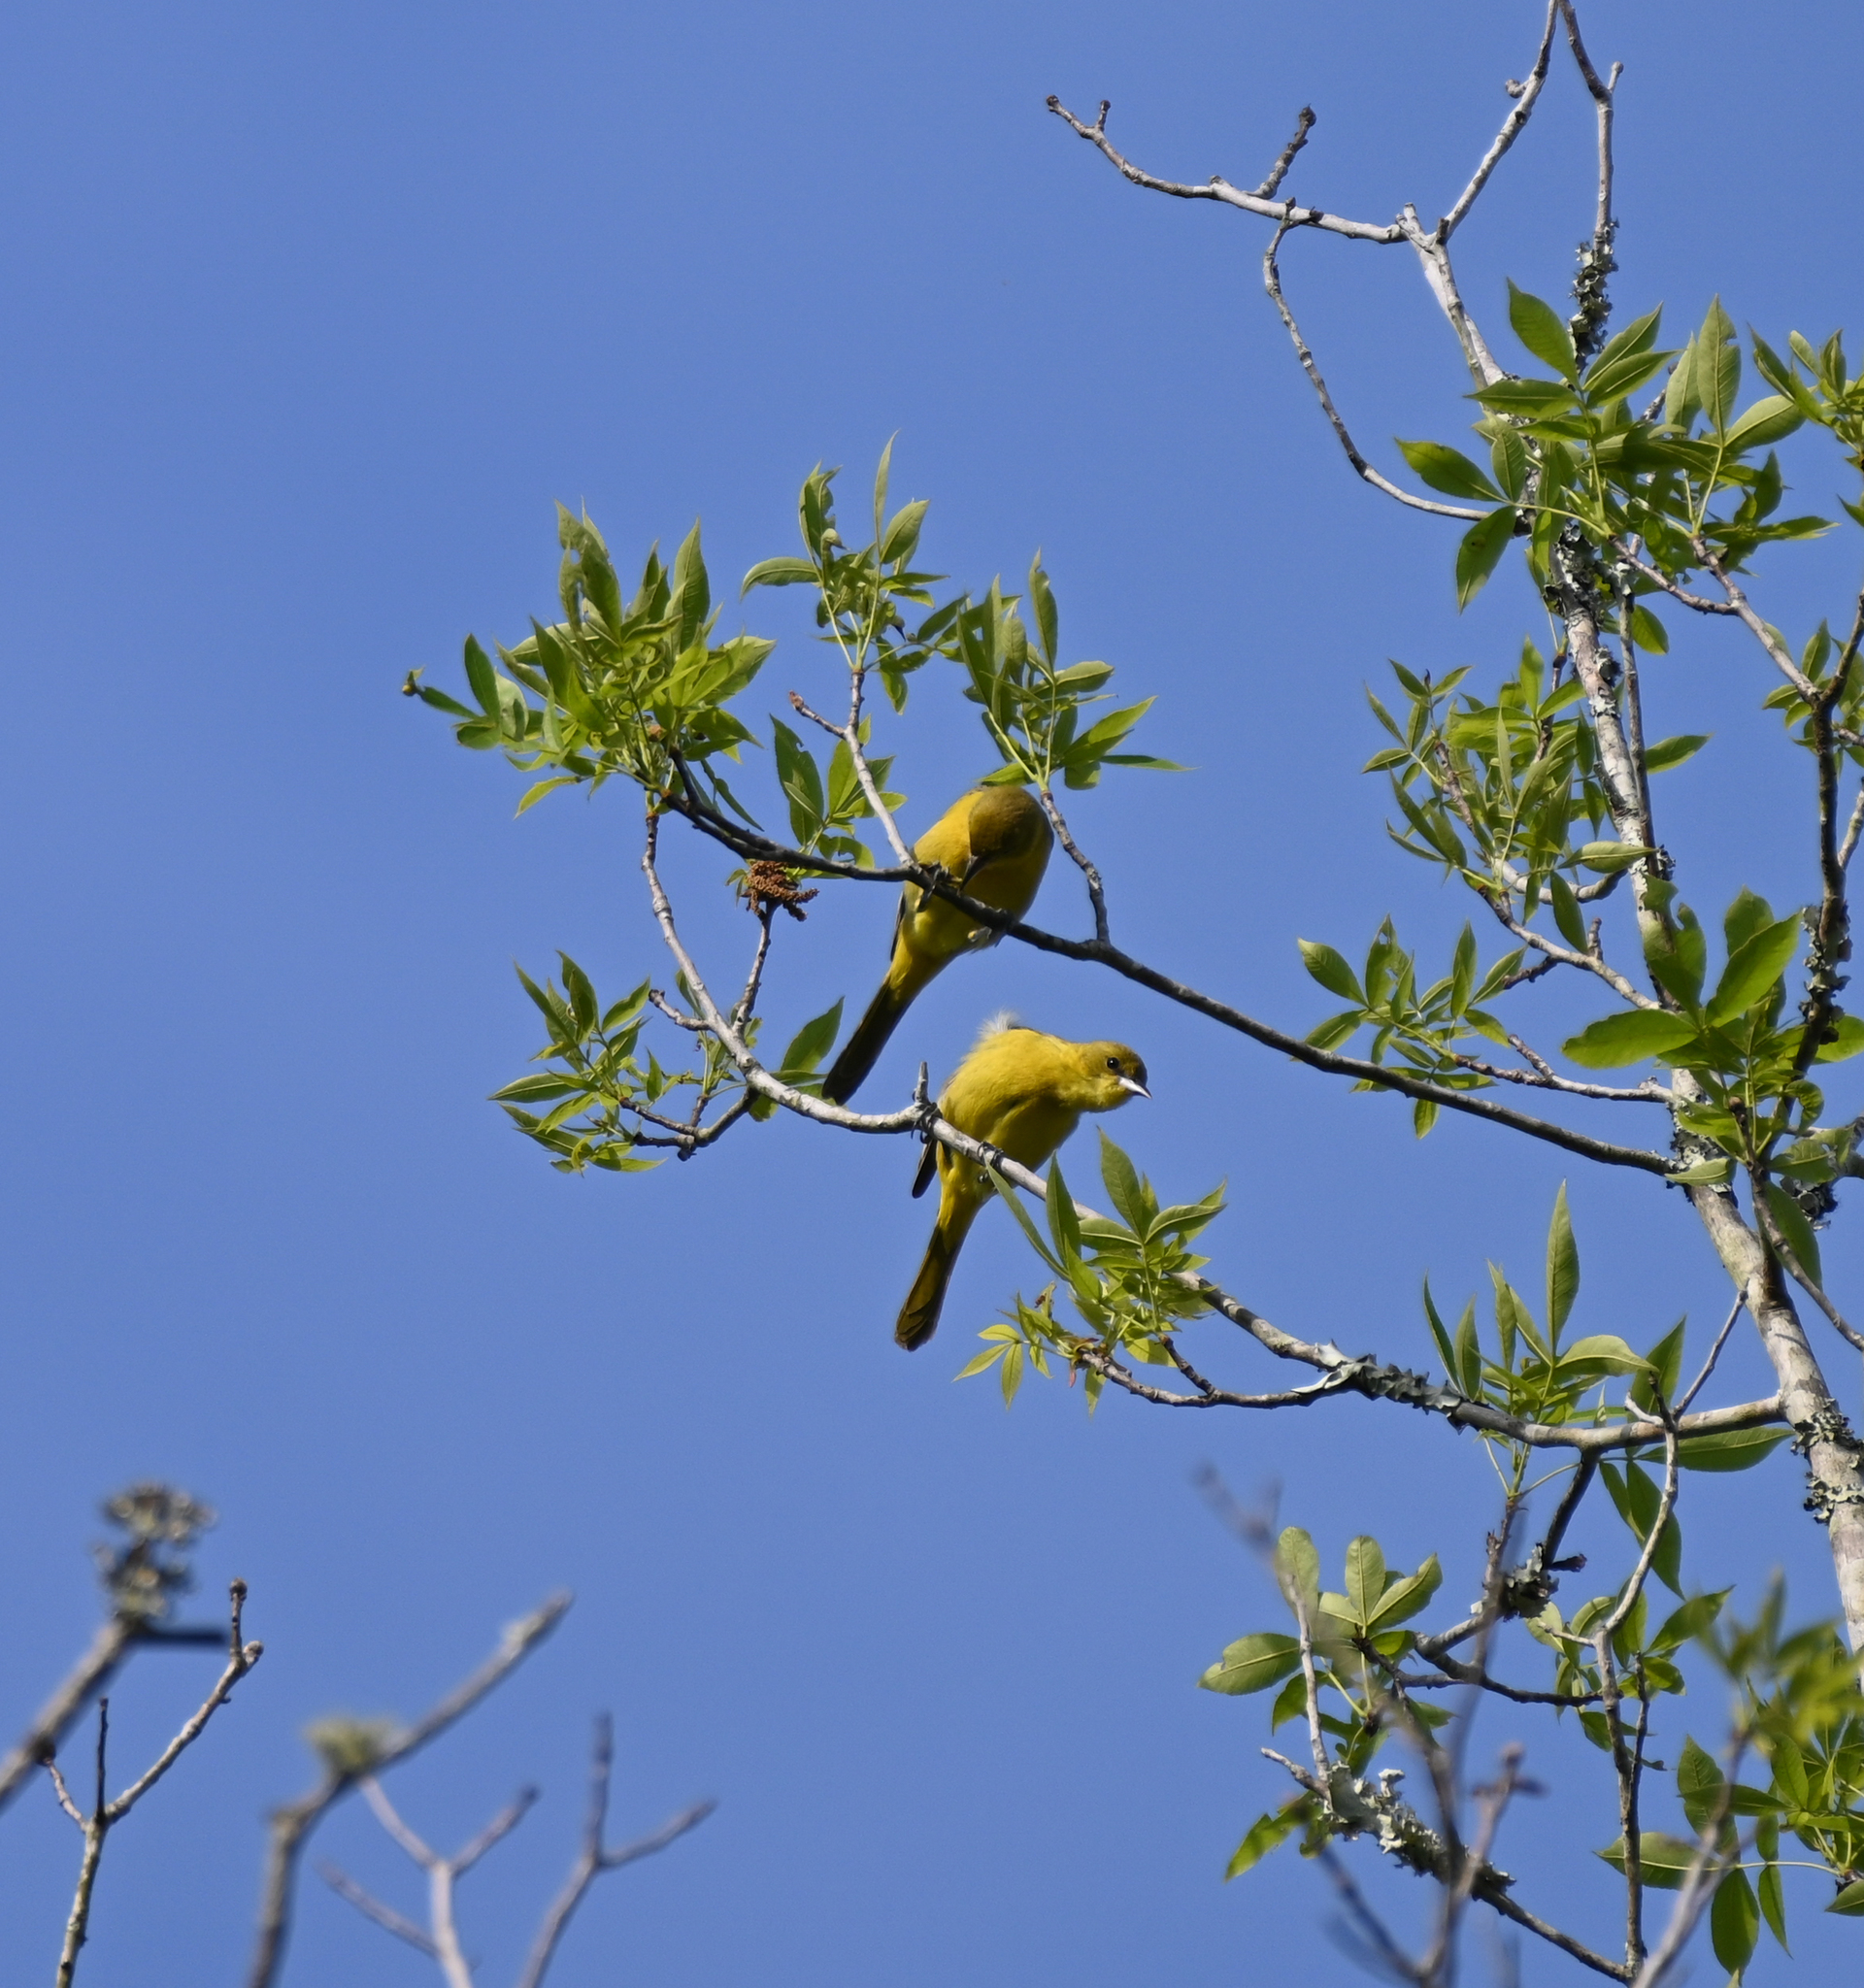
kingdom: Animalia
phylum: Chordata
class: Aves
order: Passeriformes
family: Icteridae
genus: Icterus
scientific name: Icterus spurius
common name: Orchard oriole
